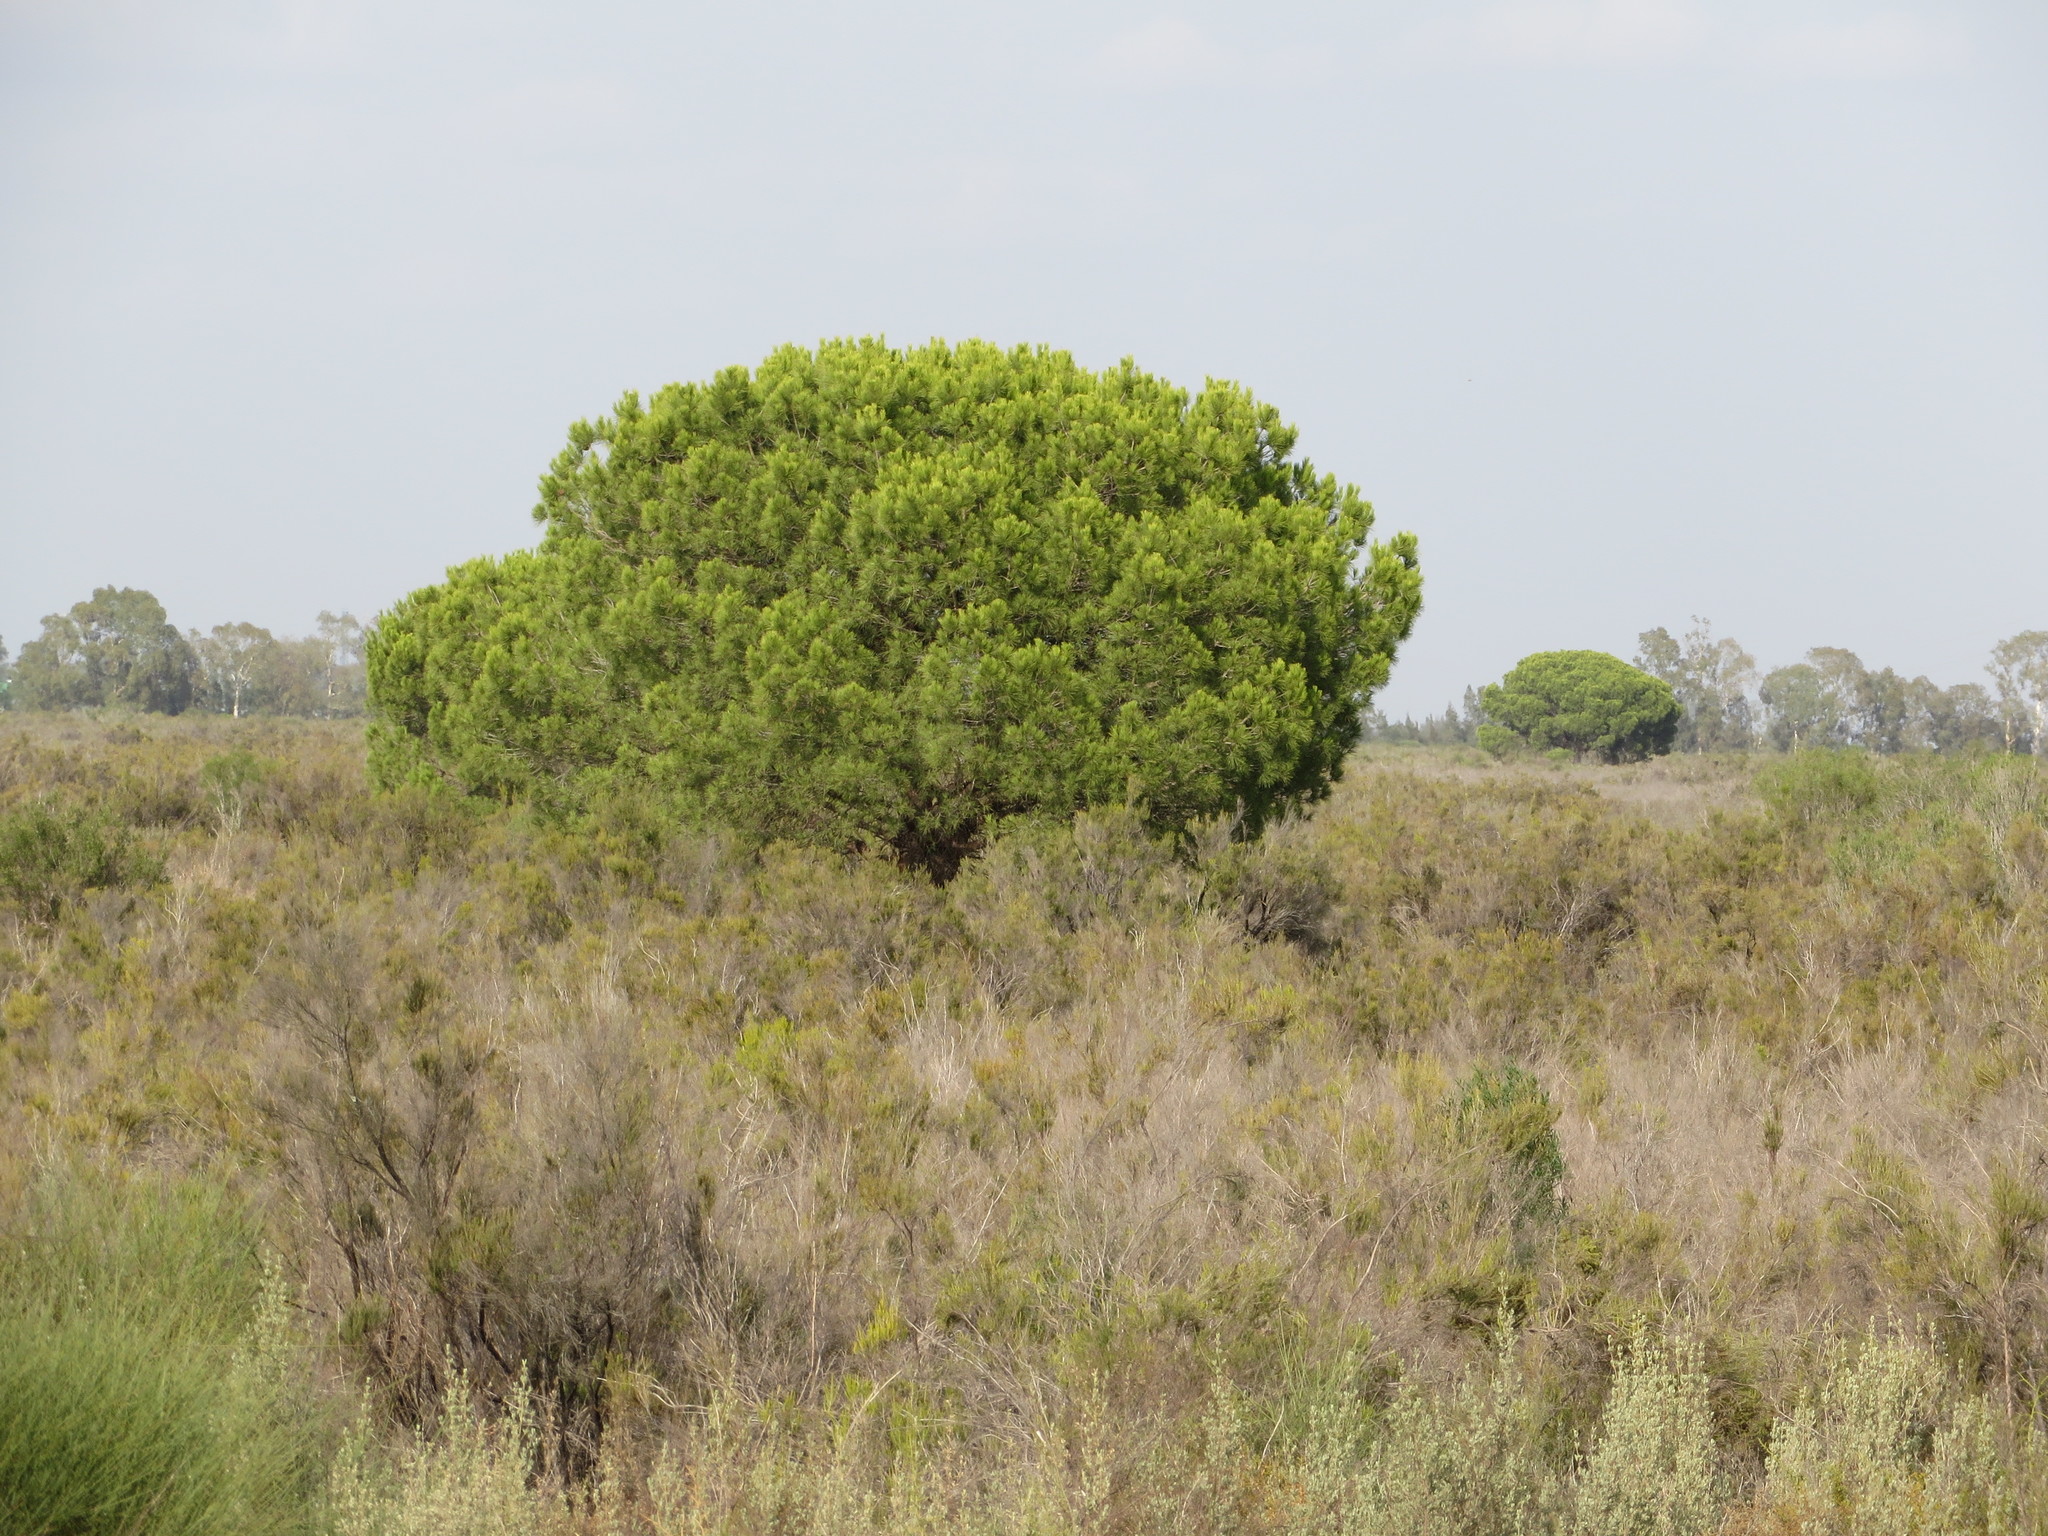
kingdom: Plantae
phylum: Tracheophyta
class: Pinopsida
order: Pinales
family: Pinaceae
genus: Pinus
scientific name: Pinus pinea
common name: Italian stone pine
